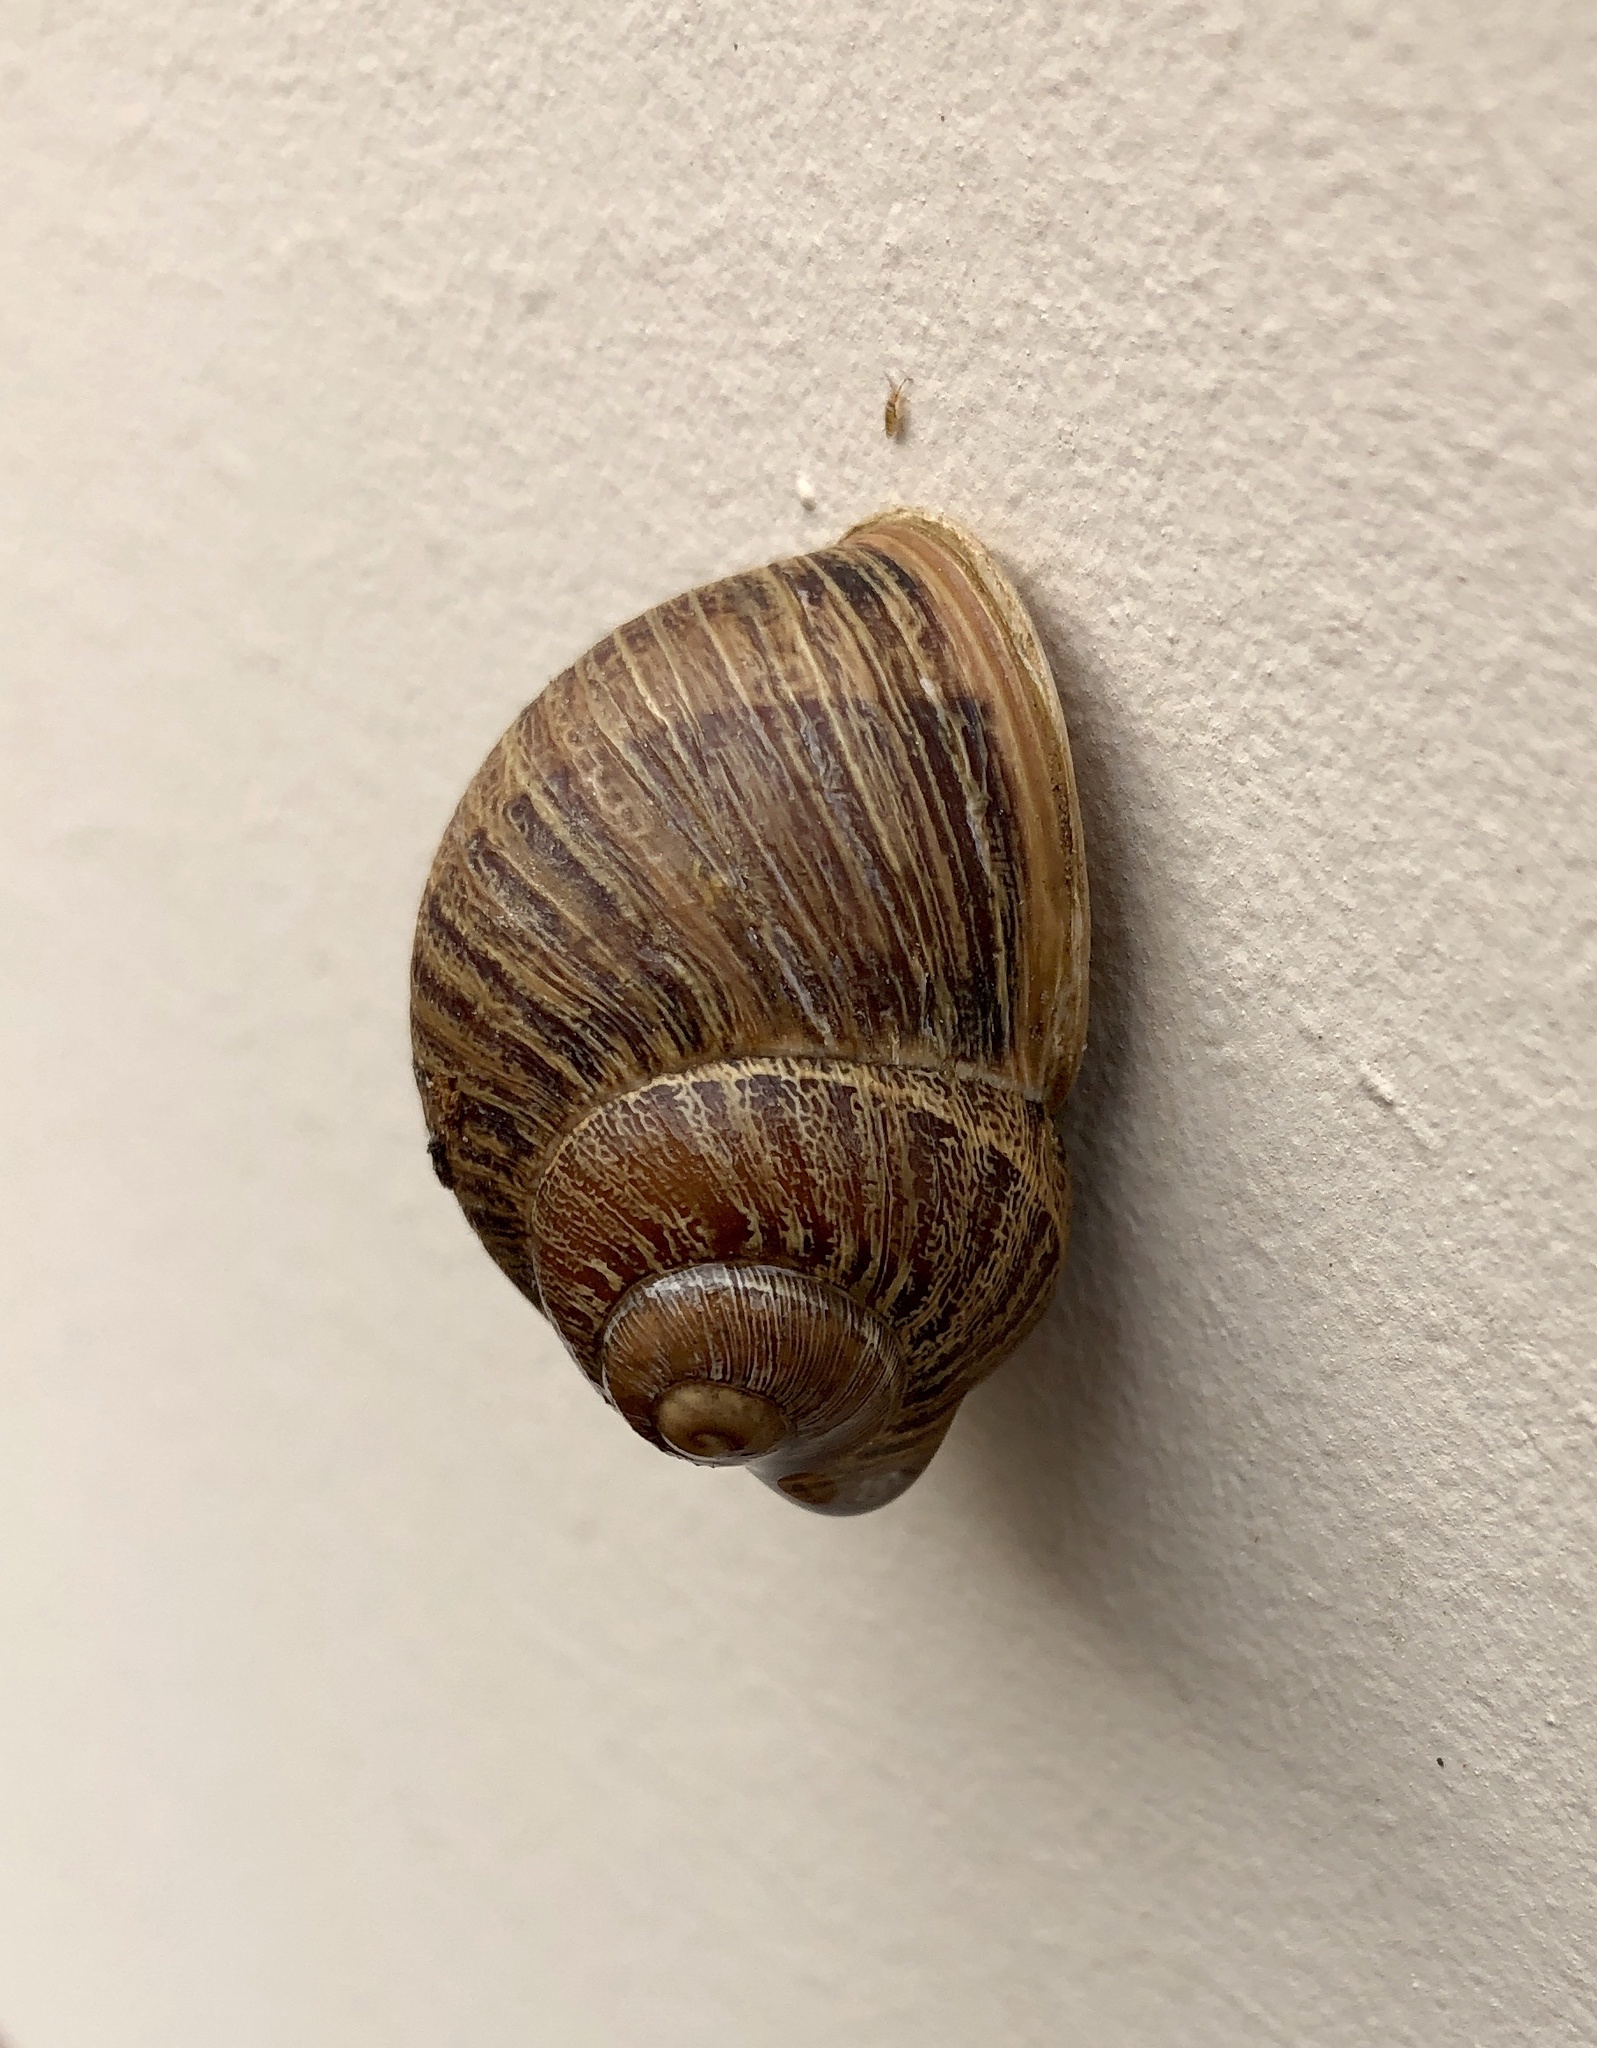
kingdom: Animalia
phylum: Mollusca
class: Gastropoda
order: Stylommatophora
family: Helicidae
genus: Cornu
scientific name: Cornu aspersum
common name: Brown garden snail
